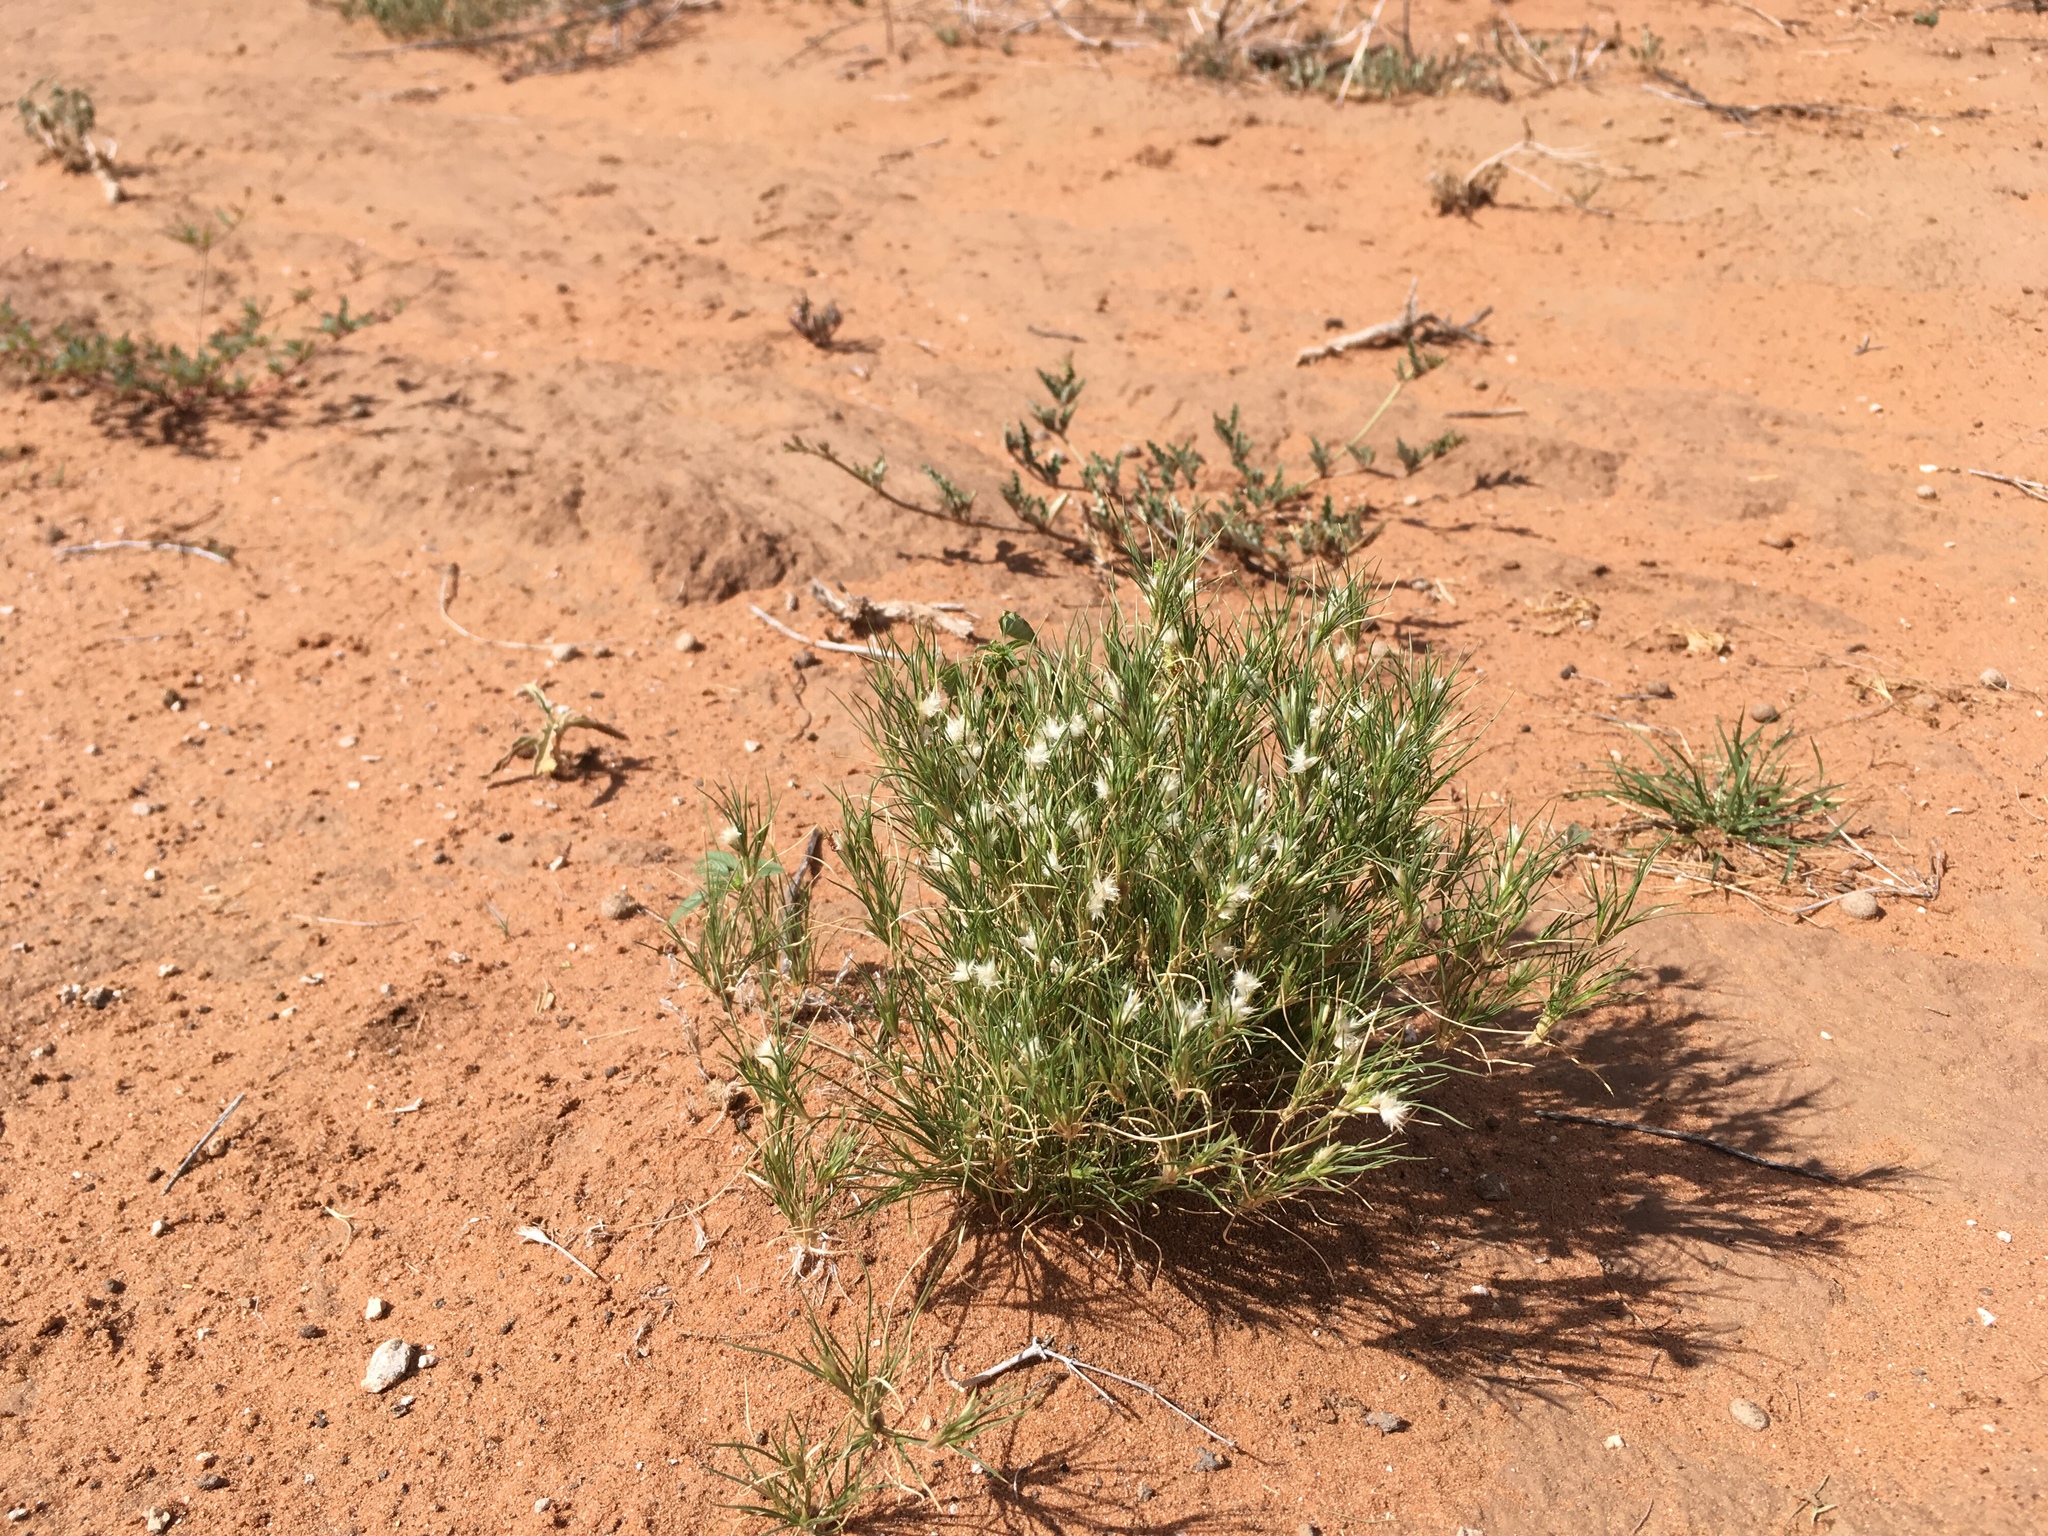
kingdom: Plantae
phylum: Tracheophyta
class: Liliopsida
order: Poales
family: Poaceae
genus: Dasyochloa
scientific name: Dasyochloa pulchella
